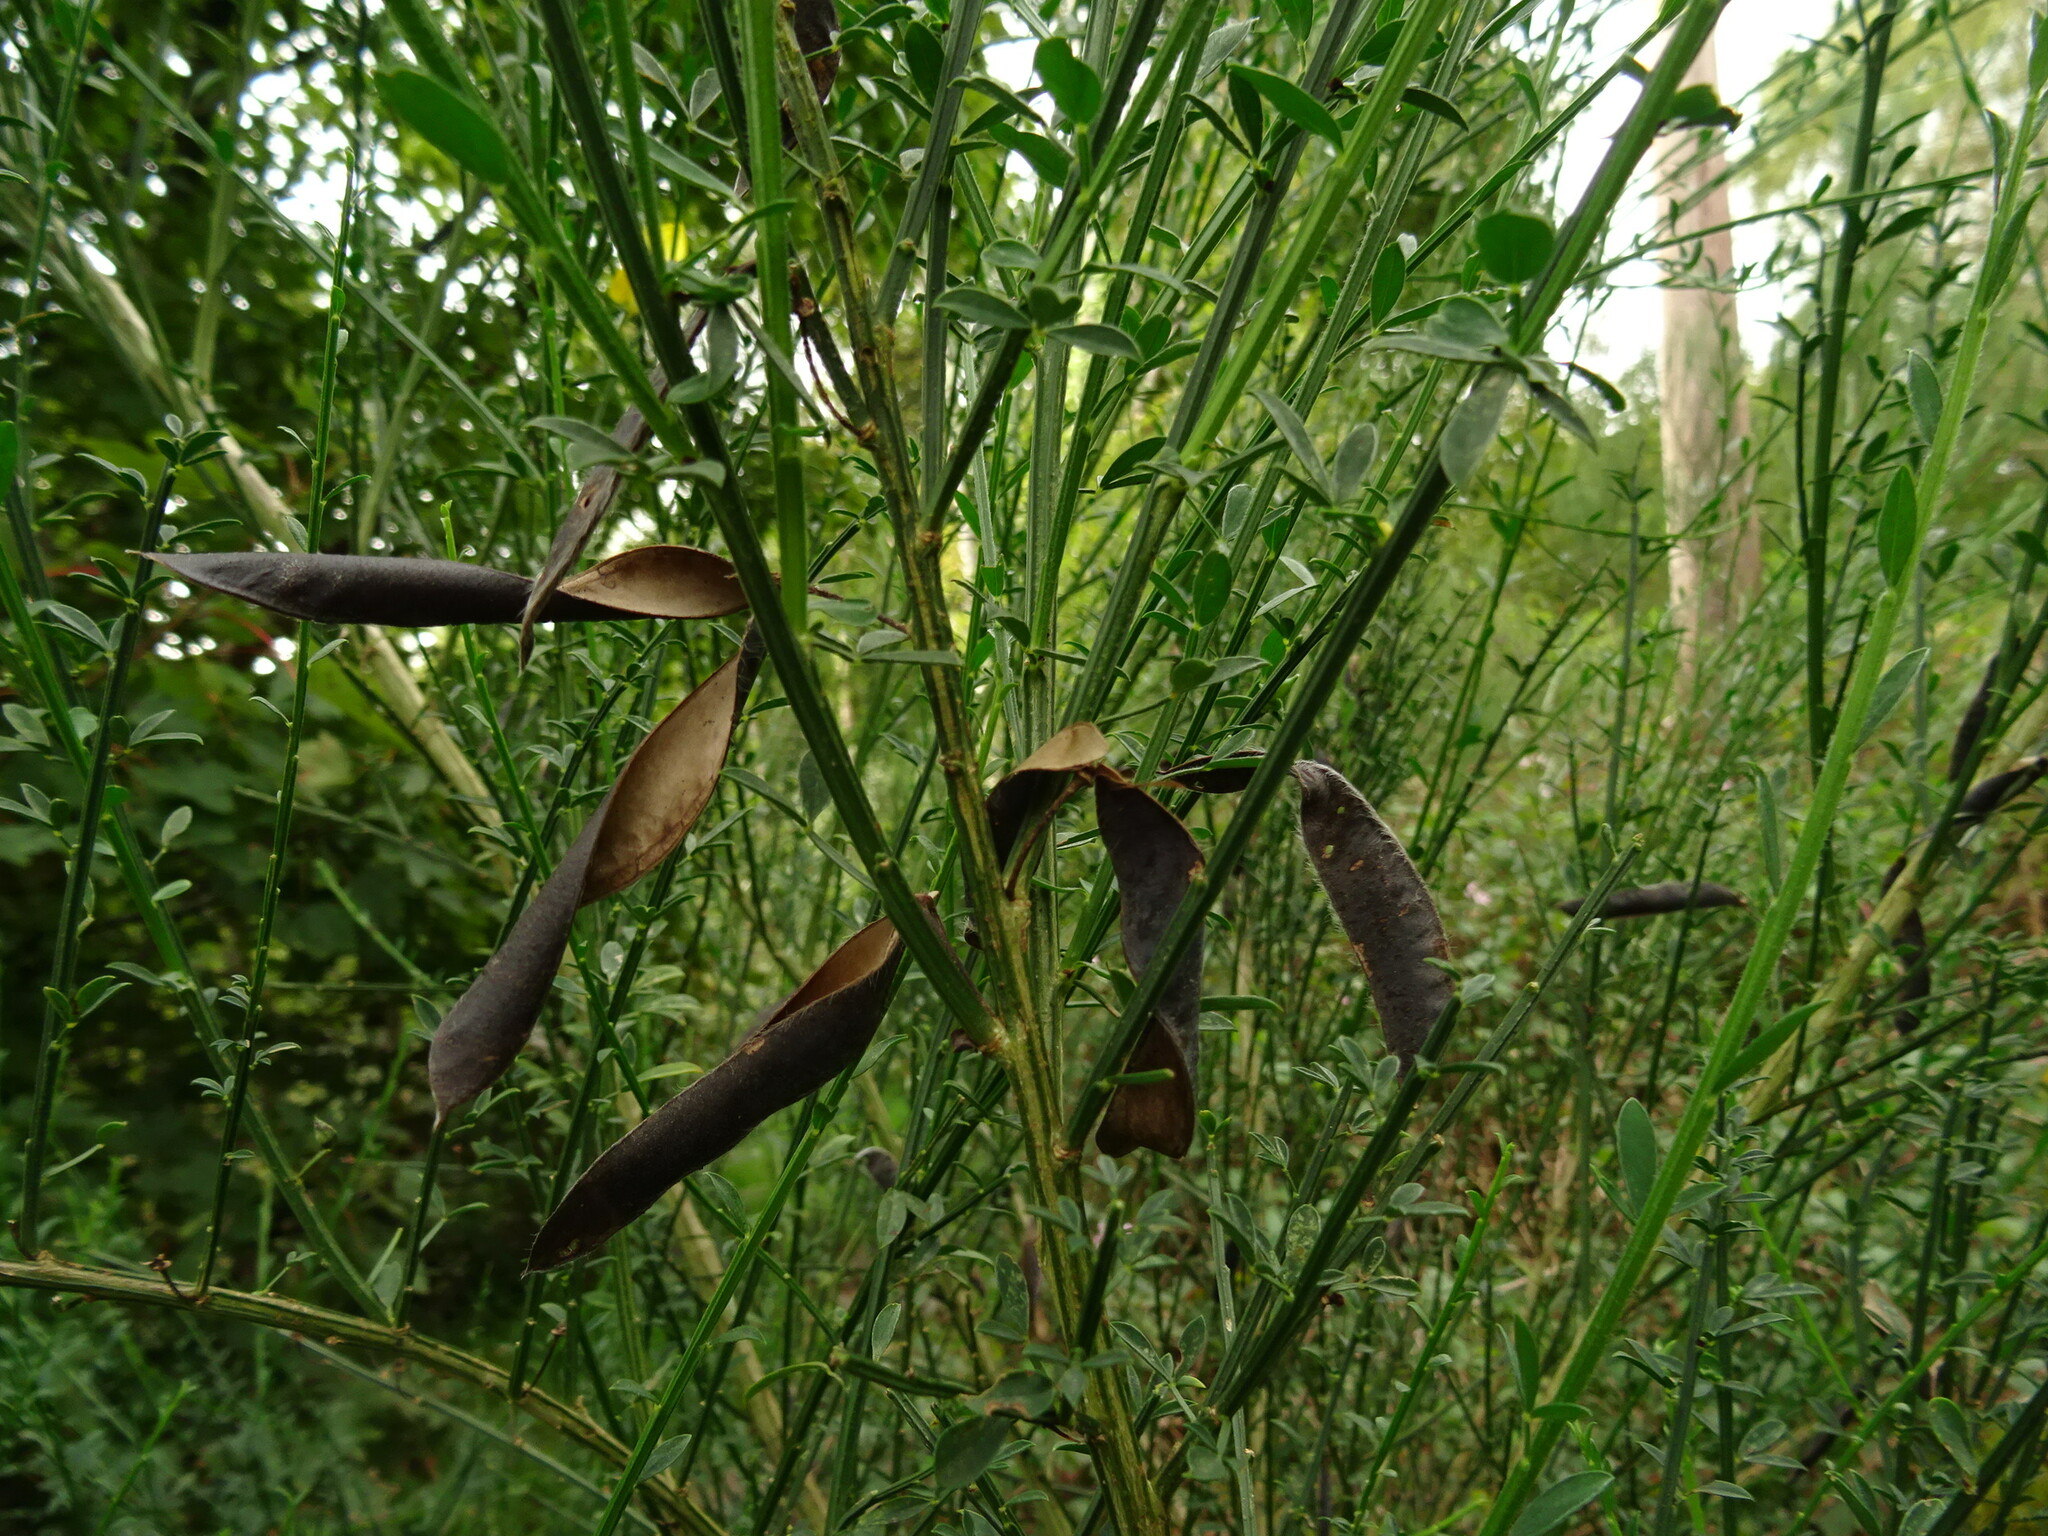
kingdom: Plantae
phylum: Tracheophyta
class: Magnoliopsida
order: Fabales
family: Fabaceae
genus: Cytisus
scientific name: Cytisus scoparius
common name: Scotch broom
